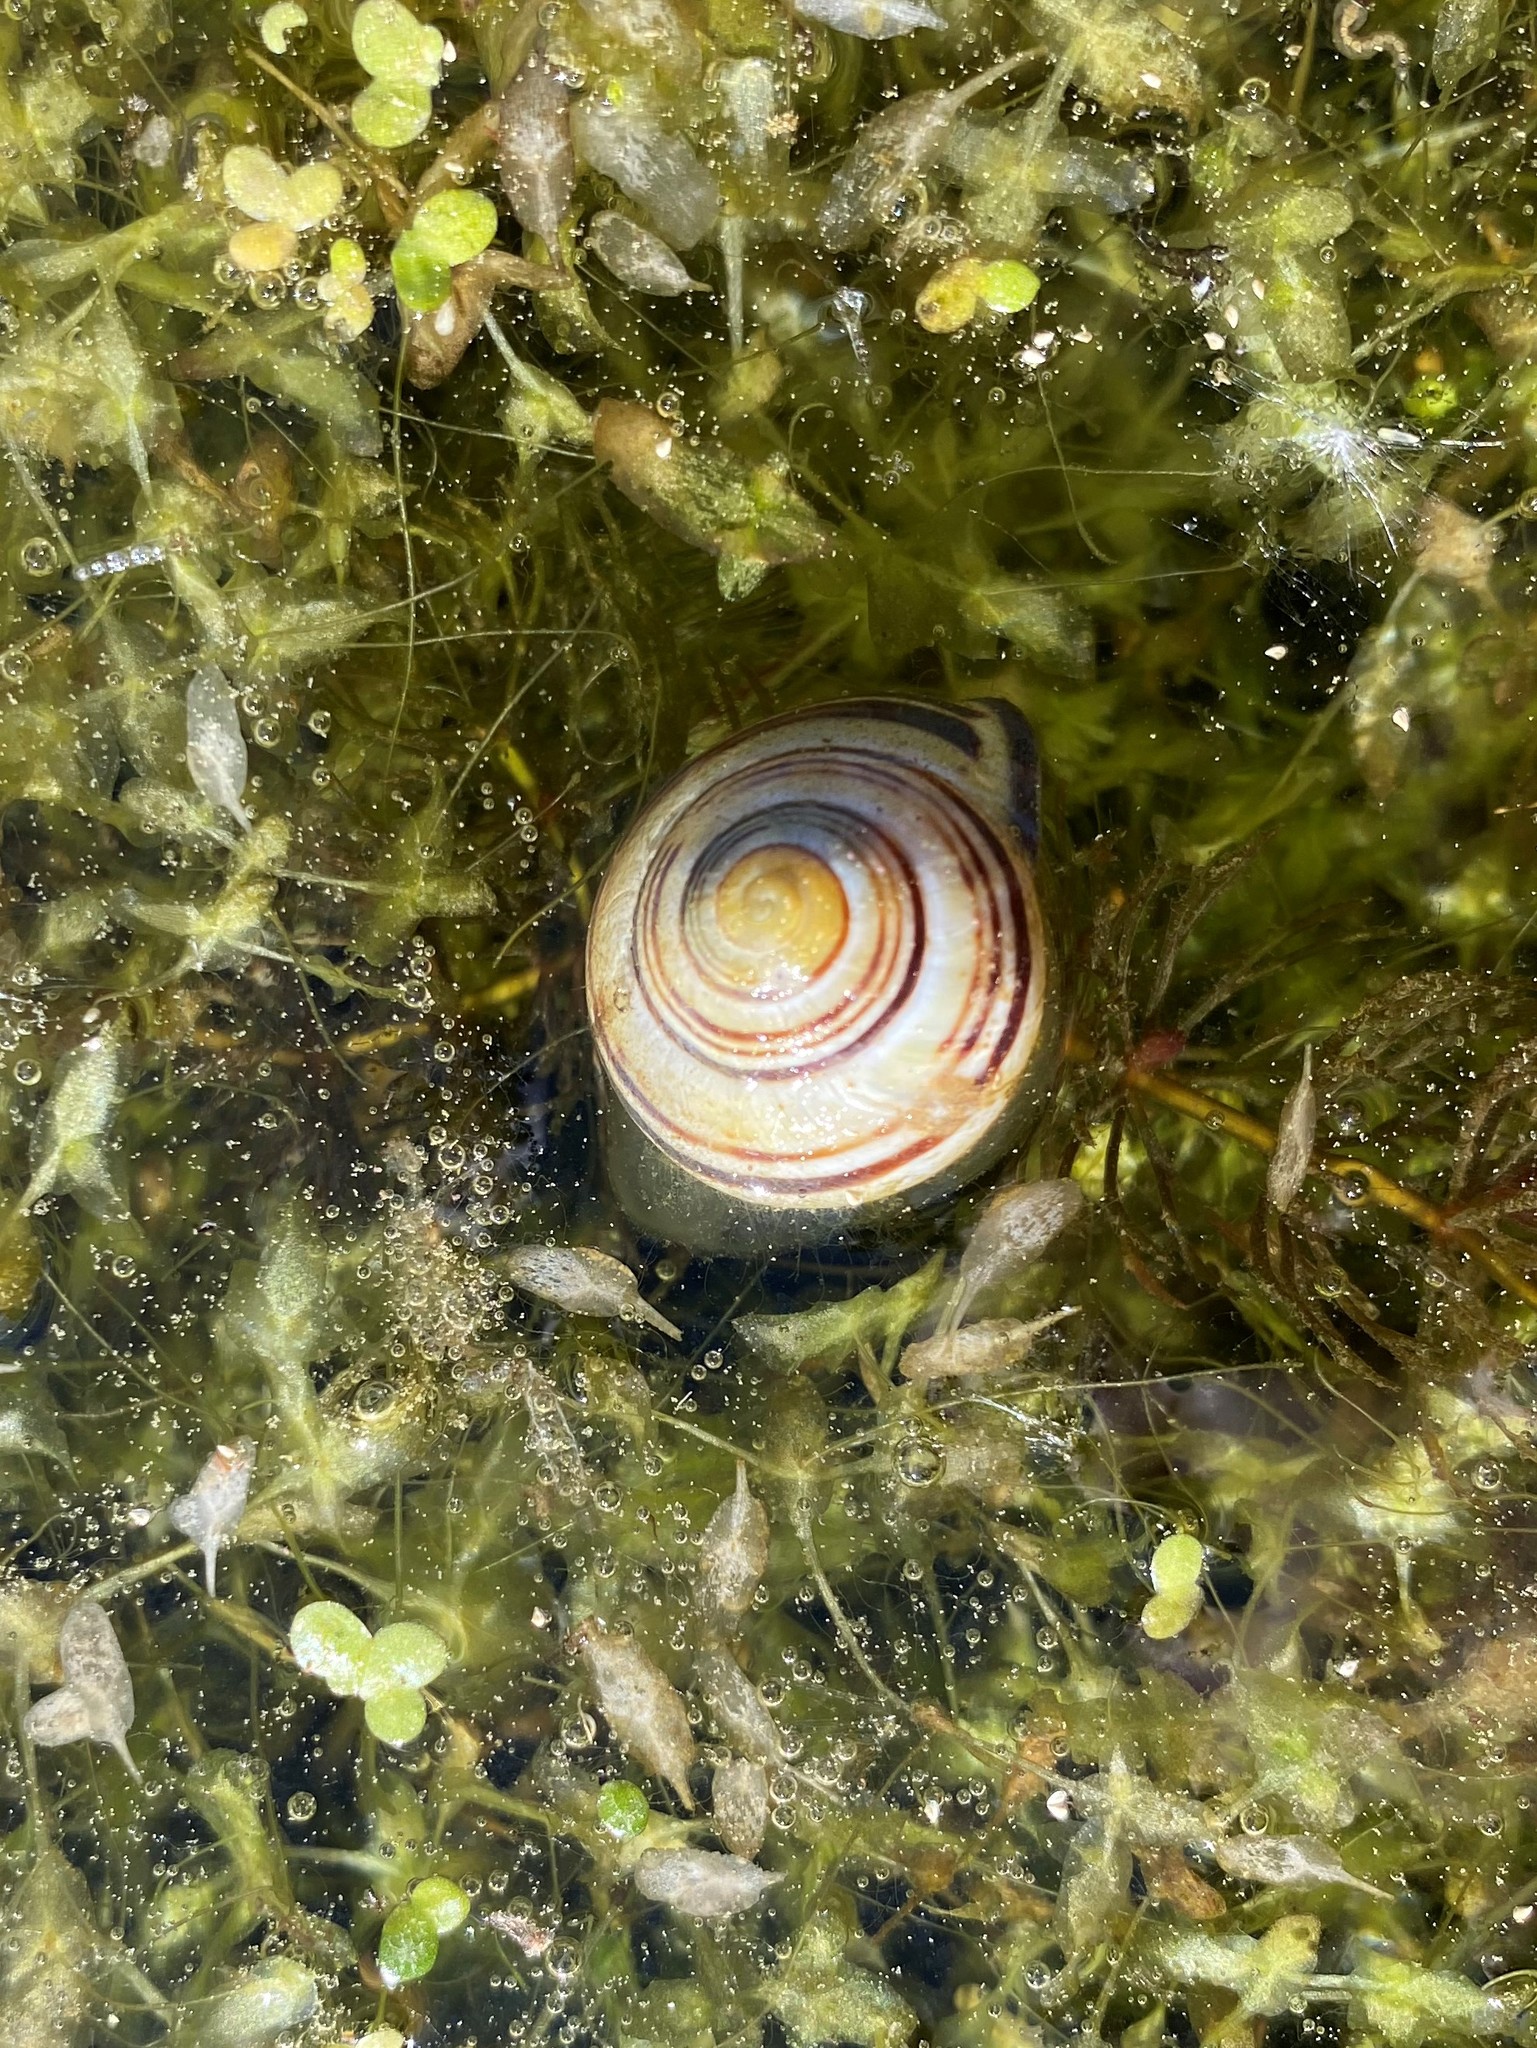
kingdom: Animalia
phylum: Mollusca
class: Gastropoda
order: Stylommatophora
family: Helicidae
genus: Cepaea
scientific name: Cepaea nemoralis
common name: Grovesnail
